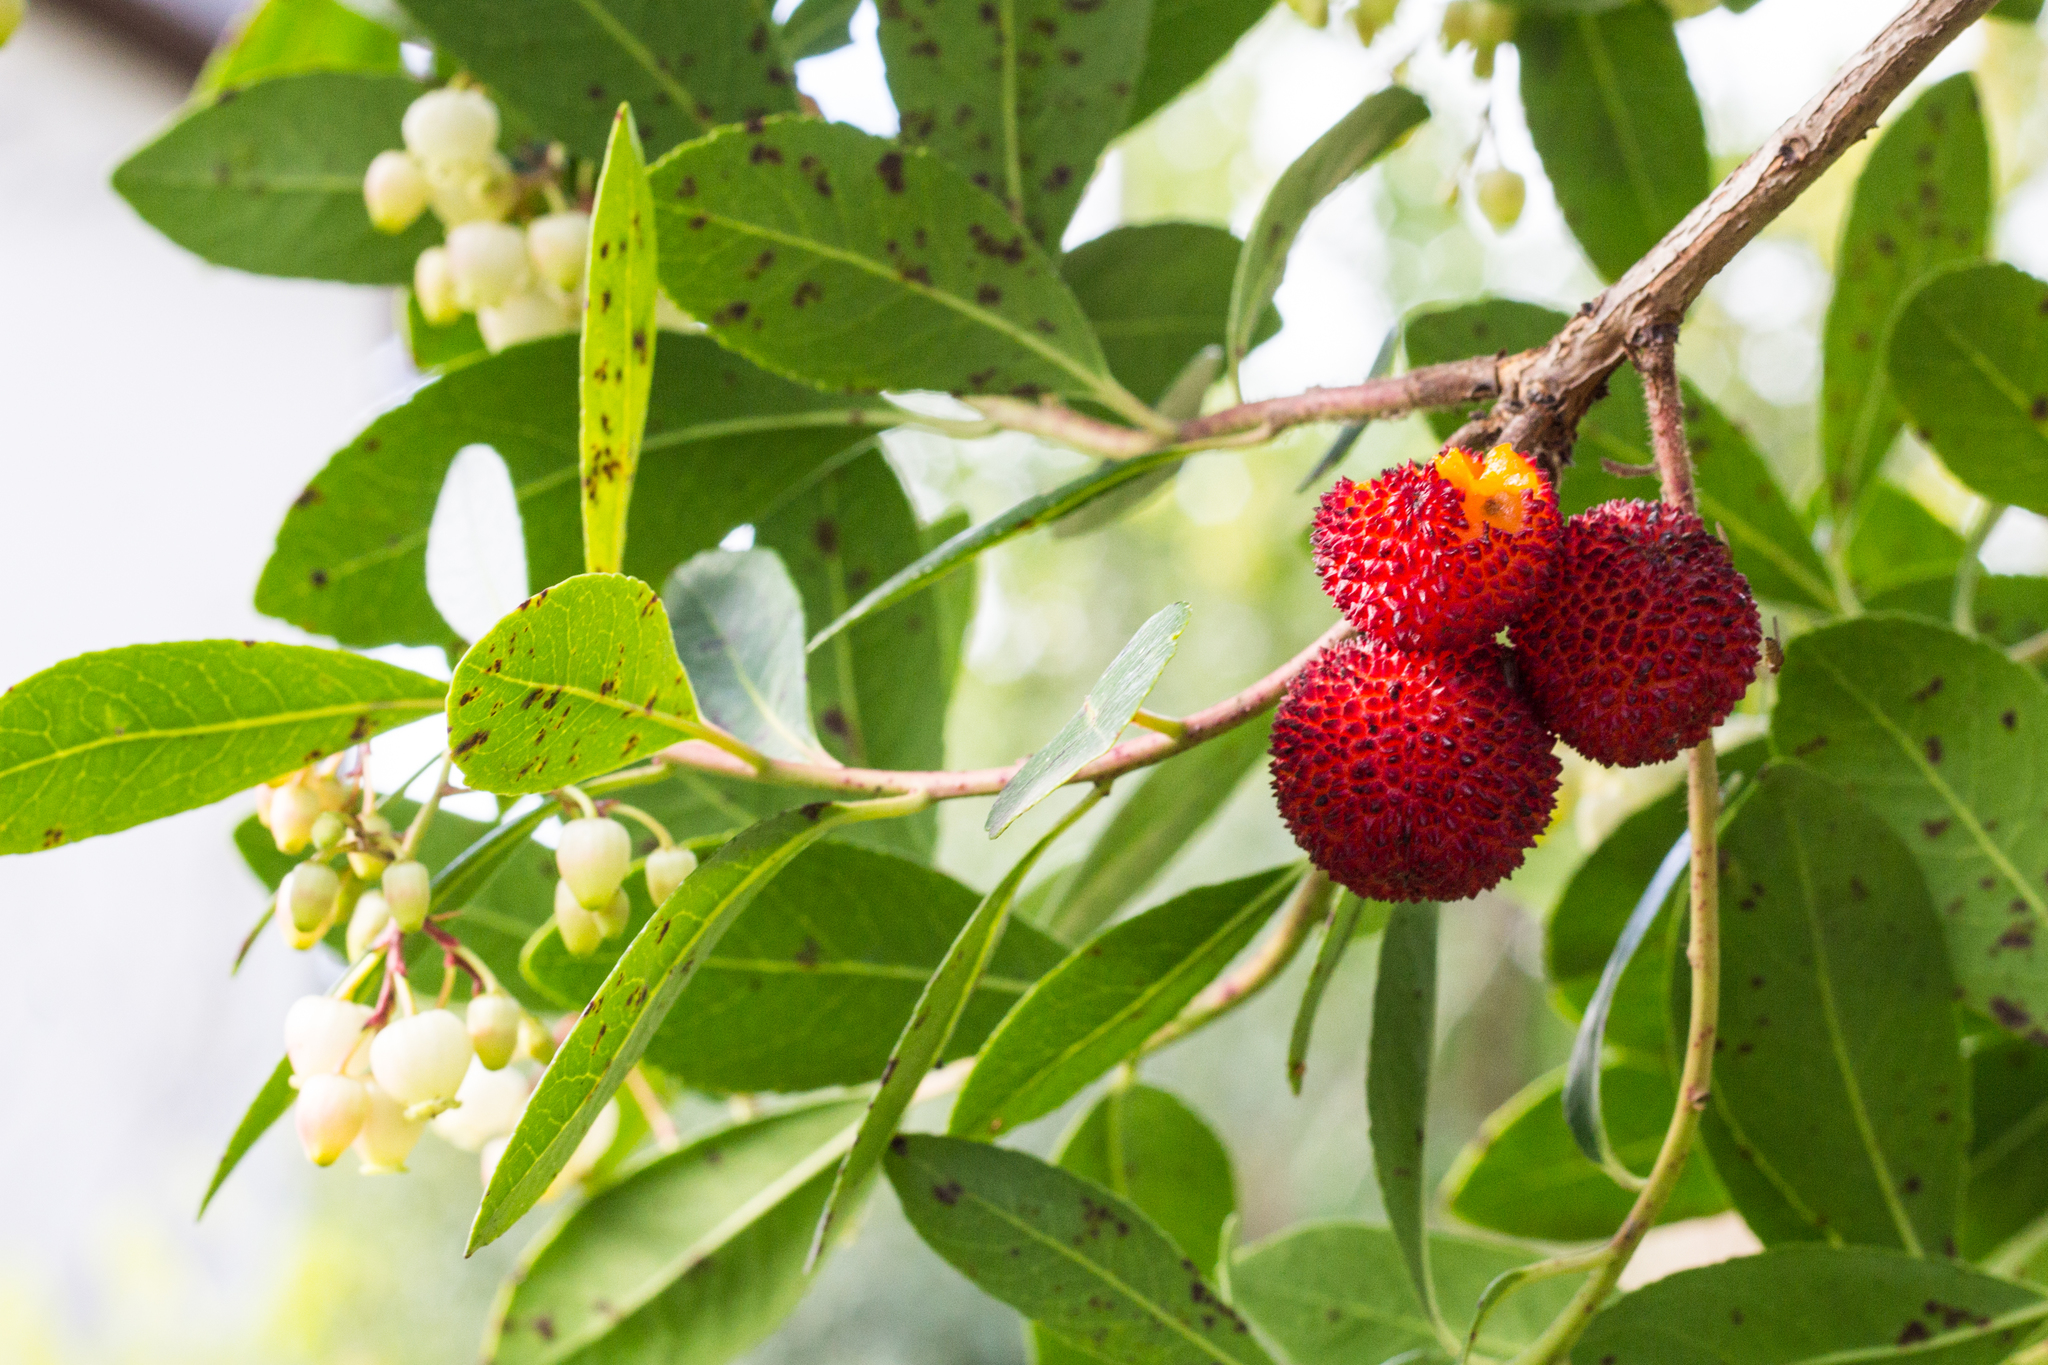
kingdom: Plantae
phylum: Tracheophyta
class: Magnoliopsida
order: Ericales
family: Ericaceae
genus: Arbutus
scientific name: Arbutus unedo
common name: Strawberry-tree
